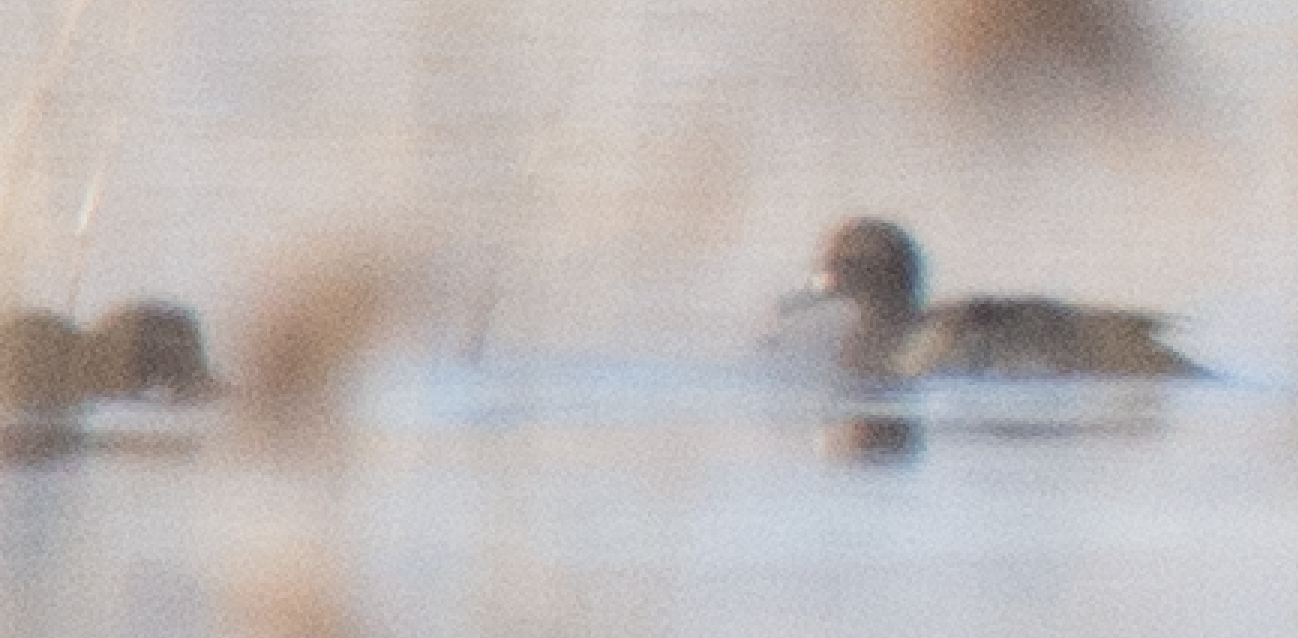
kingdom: Animalia
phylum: Chordata
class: Aves
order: Anseriformes
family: Anatidae
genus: Aythya
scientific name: Aythya fuligula
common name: Tufted duck
